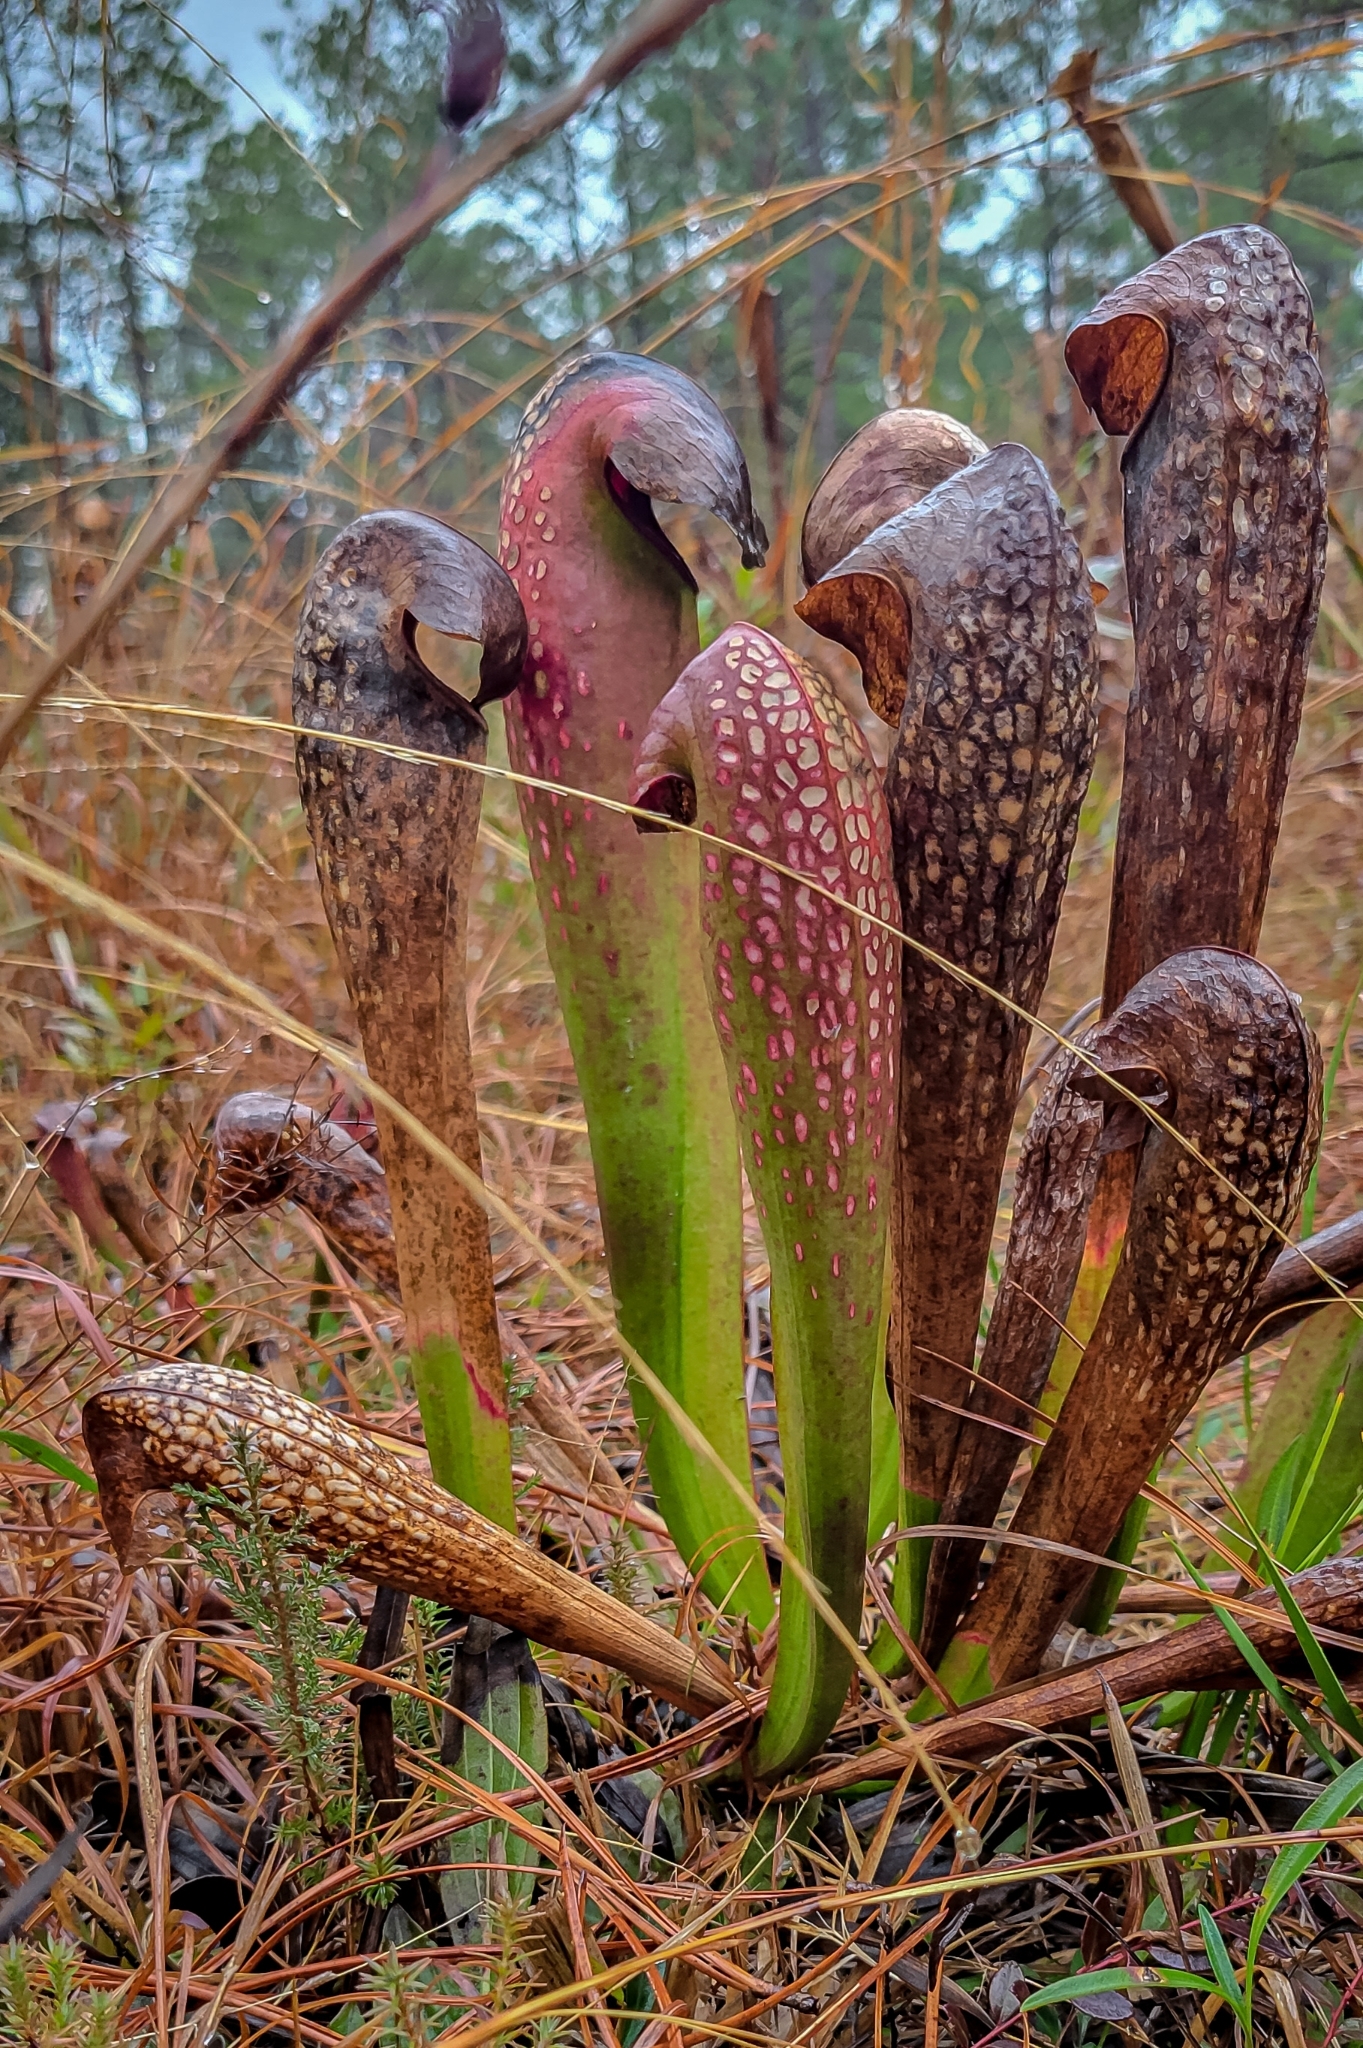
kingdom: Plantae
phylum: Tracheophyta
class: Magnoliopsida
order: Ericales
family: Sarraceniaceae
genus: Sarracenia
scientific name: Sarracenia minor
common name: Rainhat-trumpet
